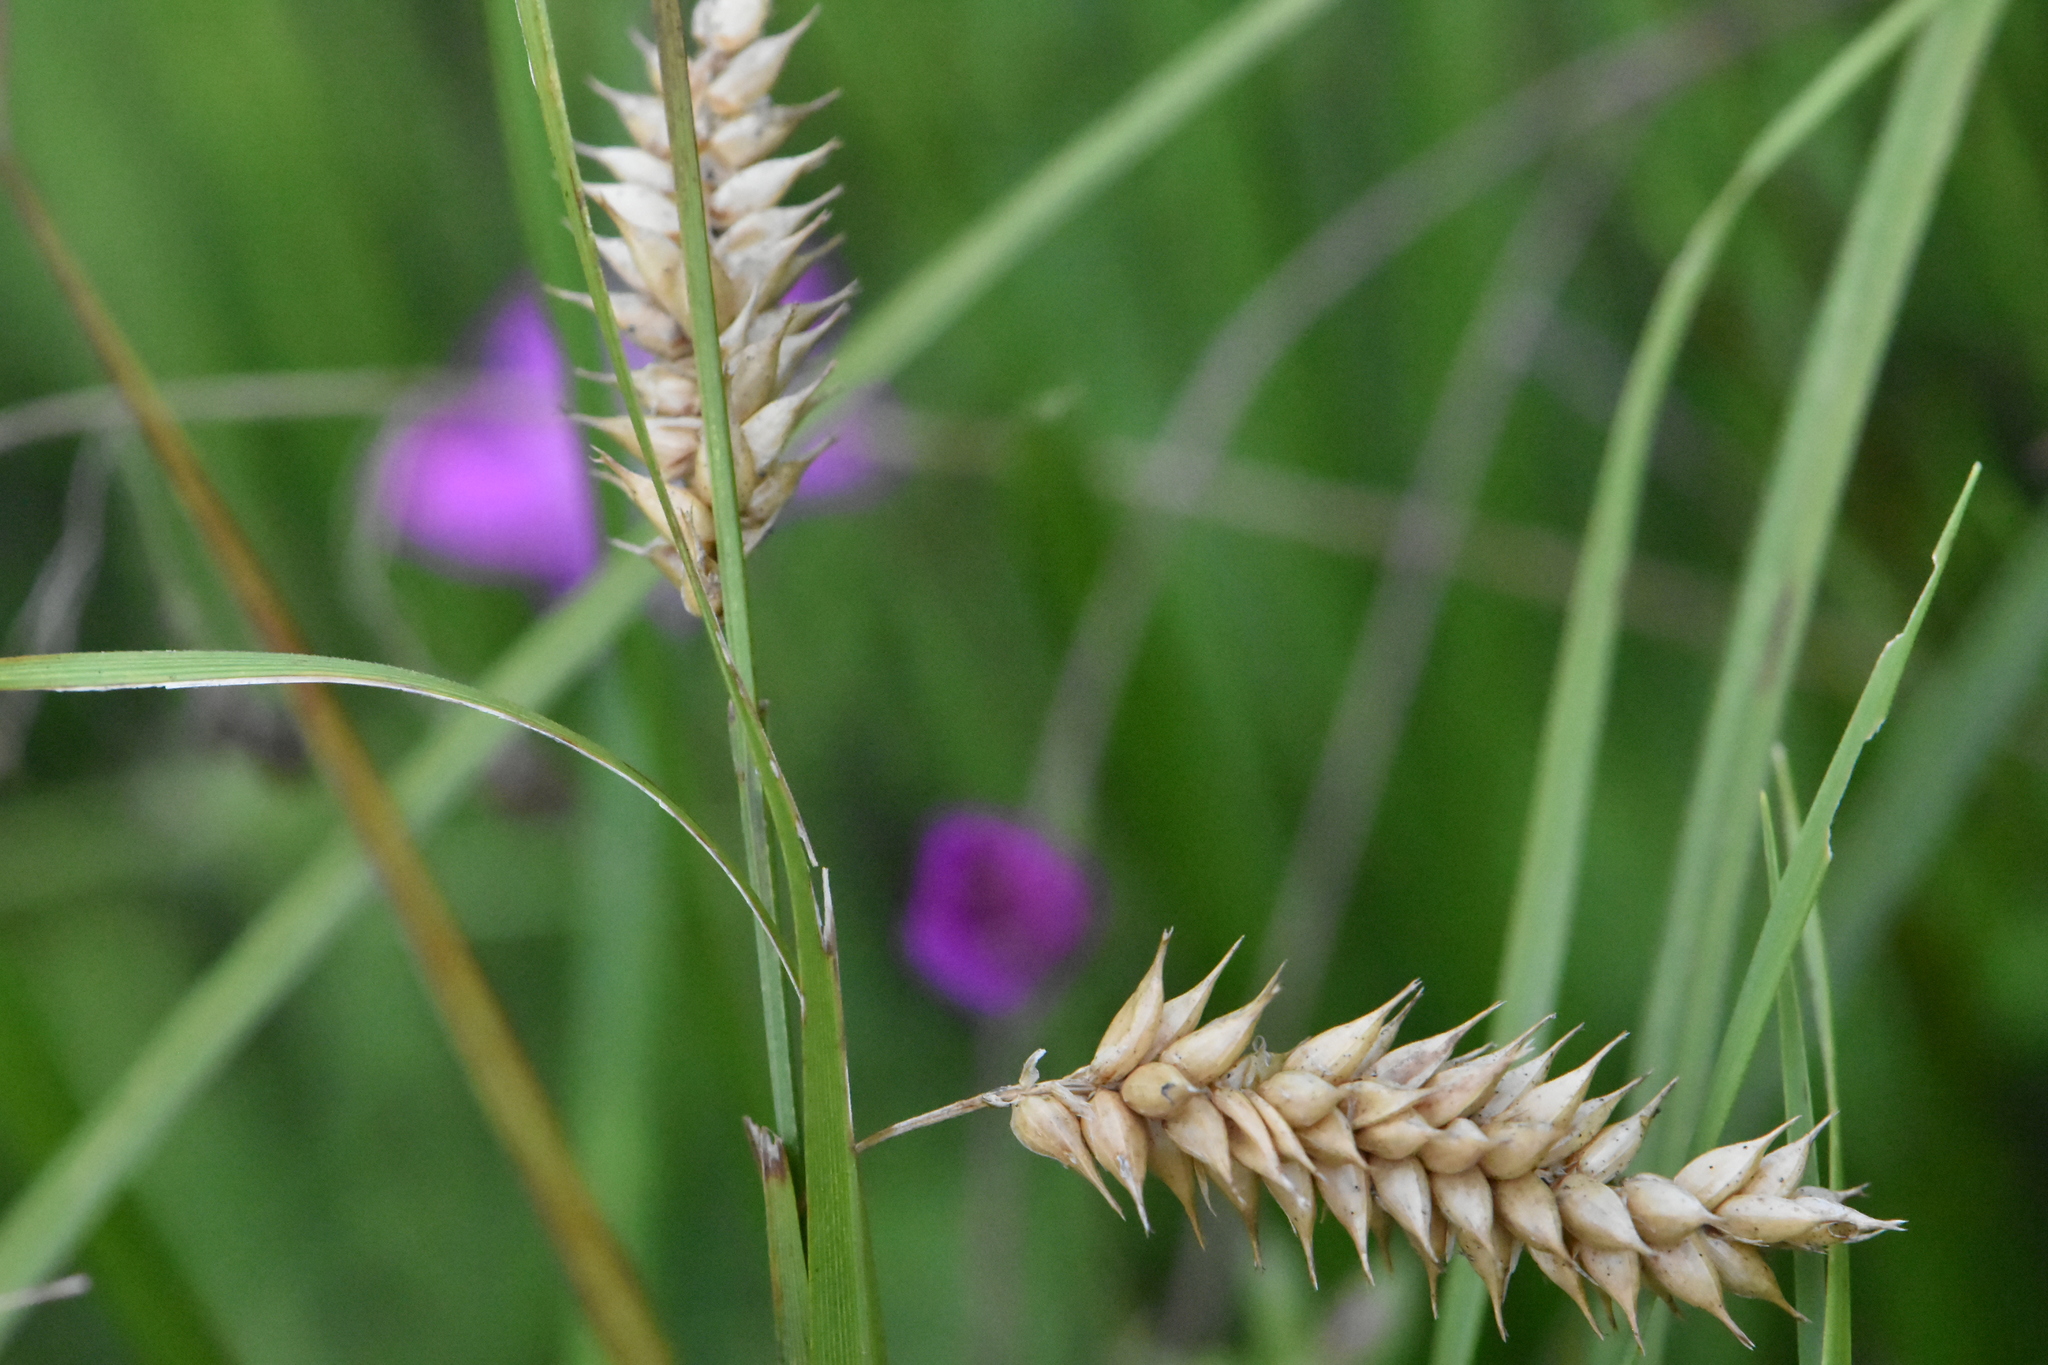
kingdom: Plantae
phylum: Tracheophyta
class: Liliopsida
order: Poales
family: Cyperaceae
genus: Carex
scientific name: Carex vesicaria
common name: Bladder-sedge
